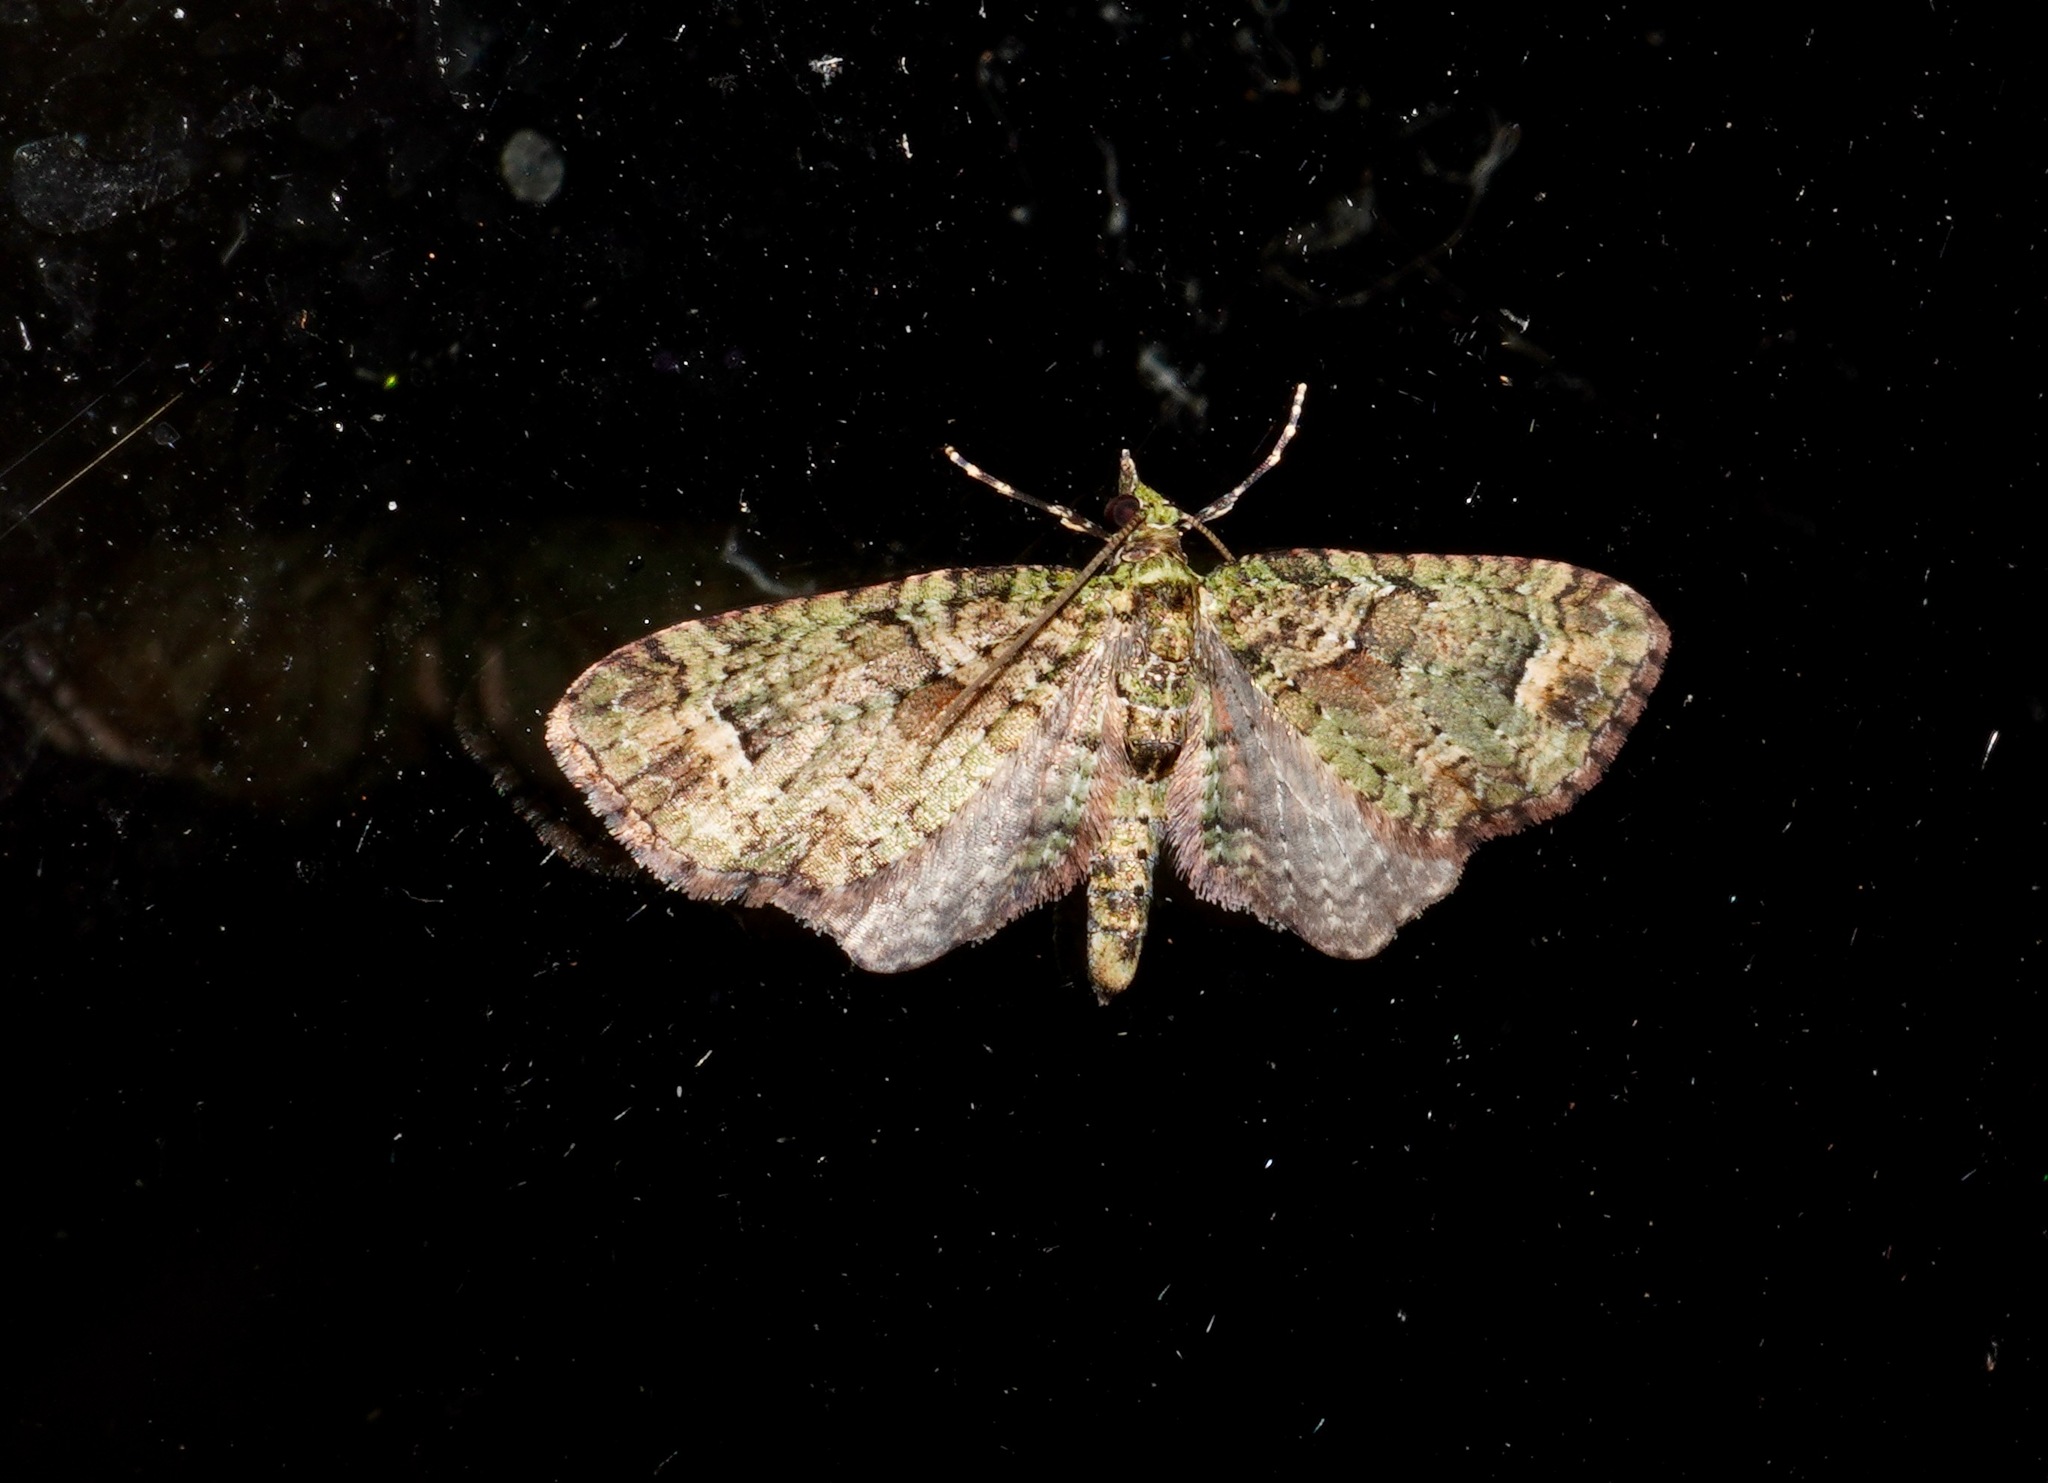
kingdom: Animalia
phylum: Arthropoda
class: Insecta
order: Lepidoptera
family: Geometridae
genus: Idaea
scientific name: Idaea mutanda
